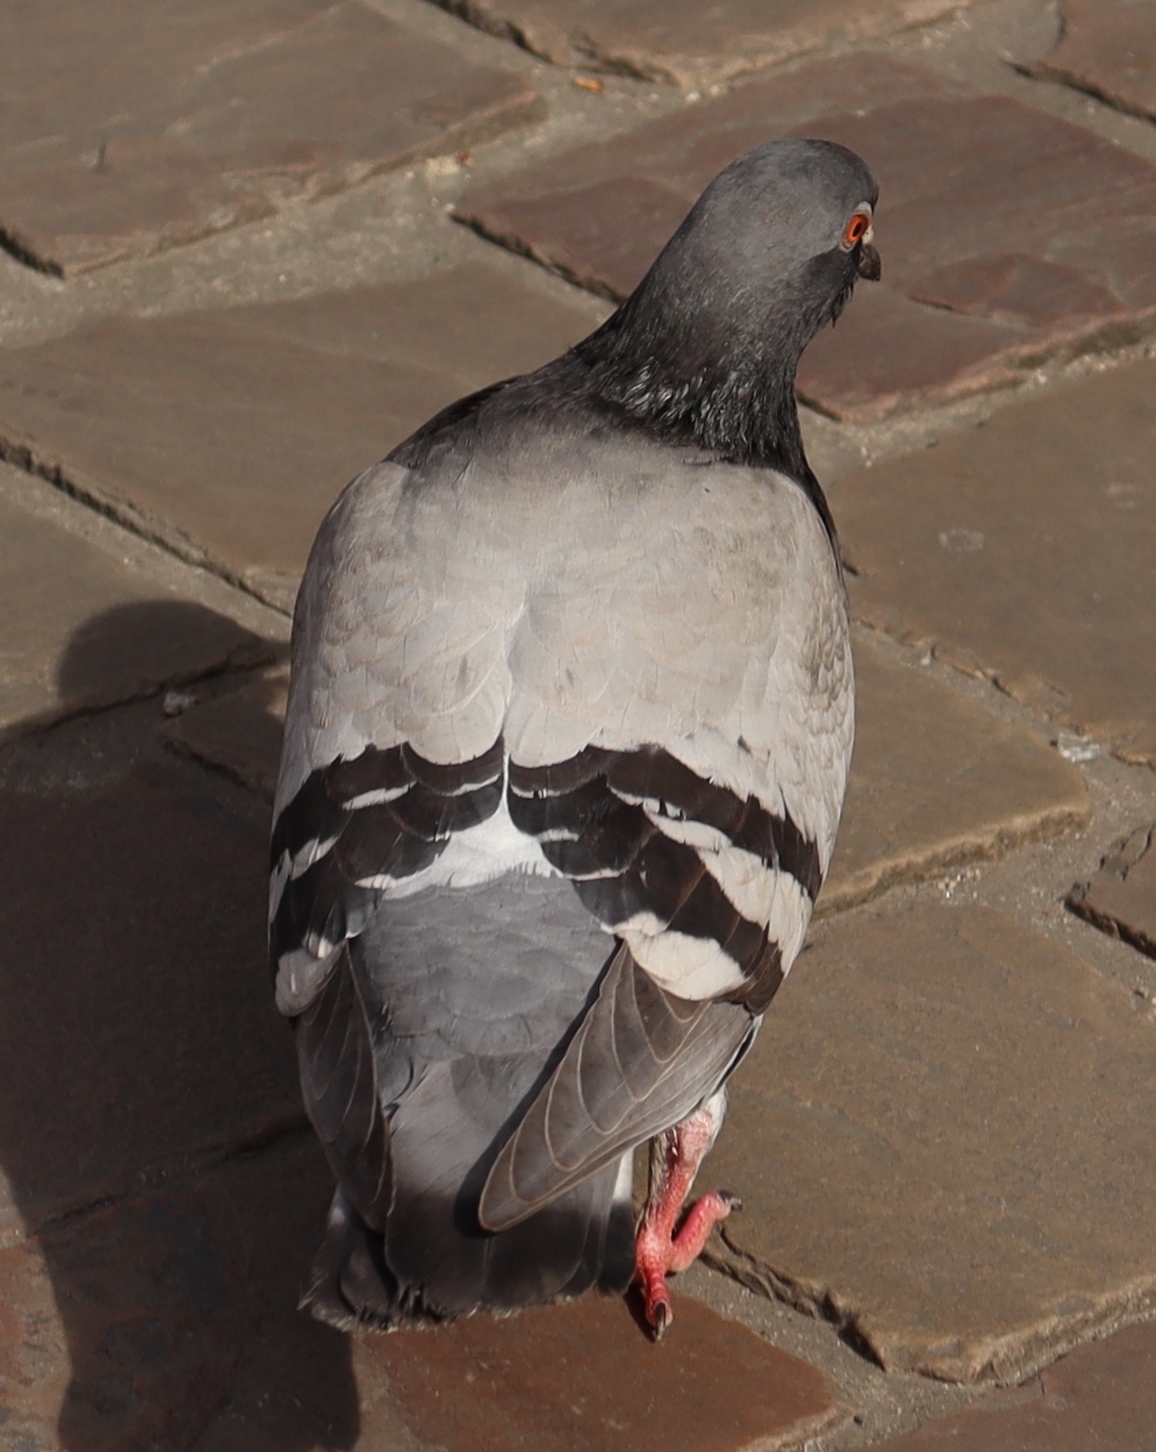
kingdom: Animalia
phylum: Chordata
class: Aves
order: Columbiformes
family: Columbidae
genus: Columba
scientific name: Columba livia
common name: Rock pigeon
